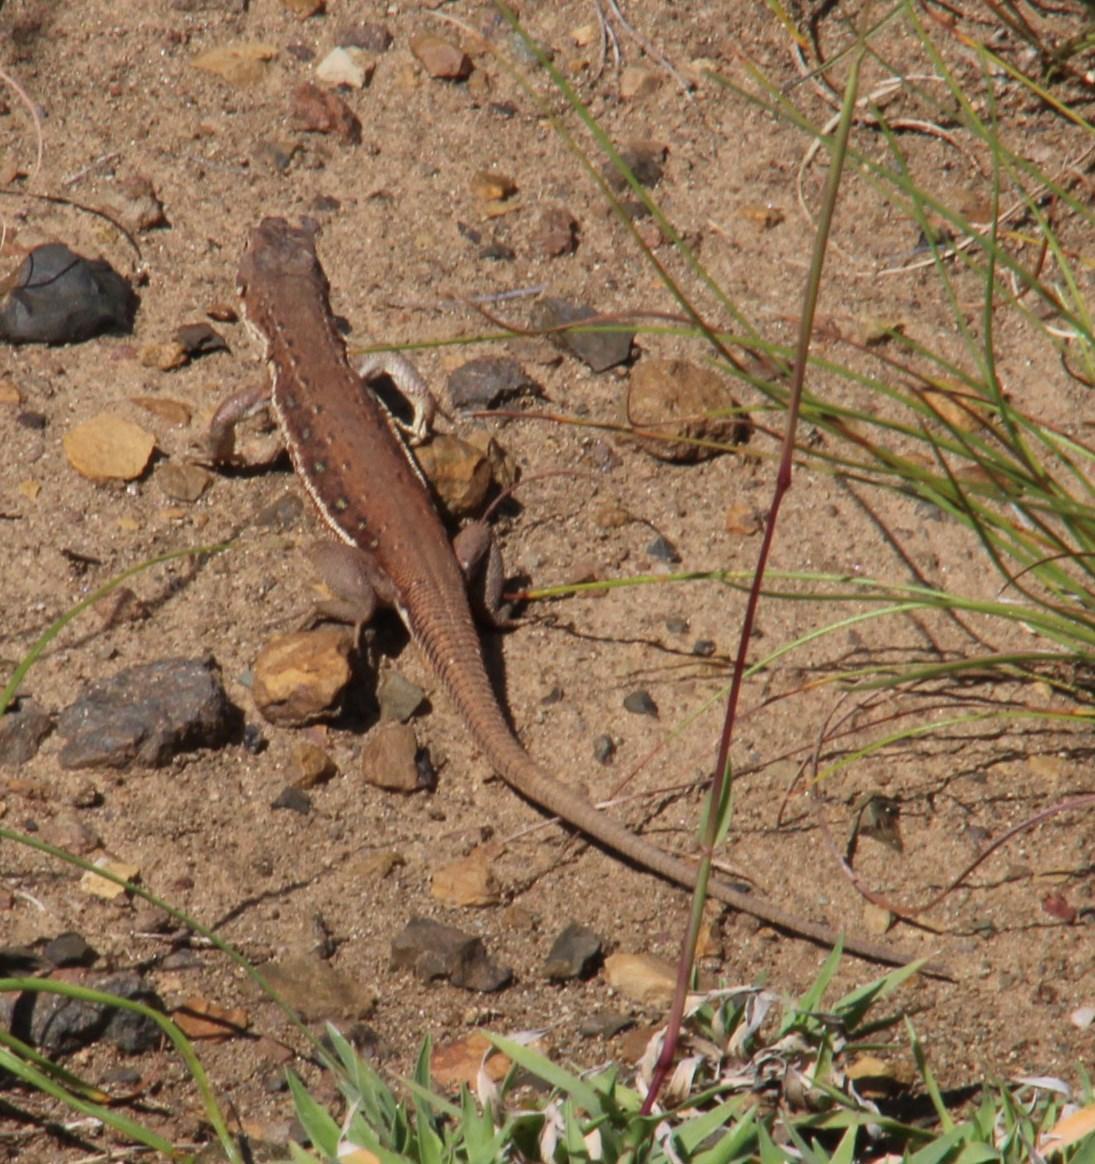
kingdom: Animalia
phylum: Chordata
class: Squamata
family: Lacertidae
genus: Pedioplanis
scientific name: Pedioplanis lineoocellata
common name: Spotted sand lizard
